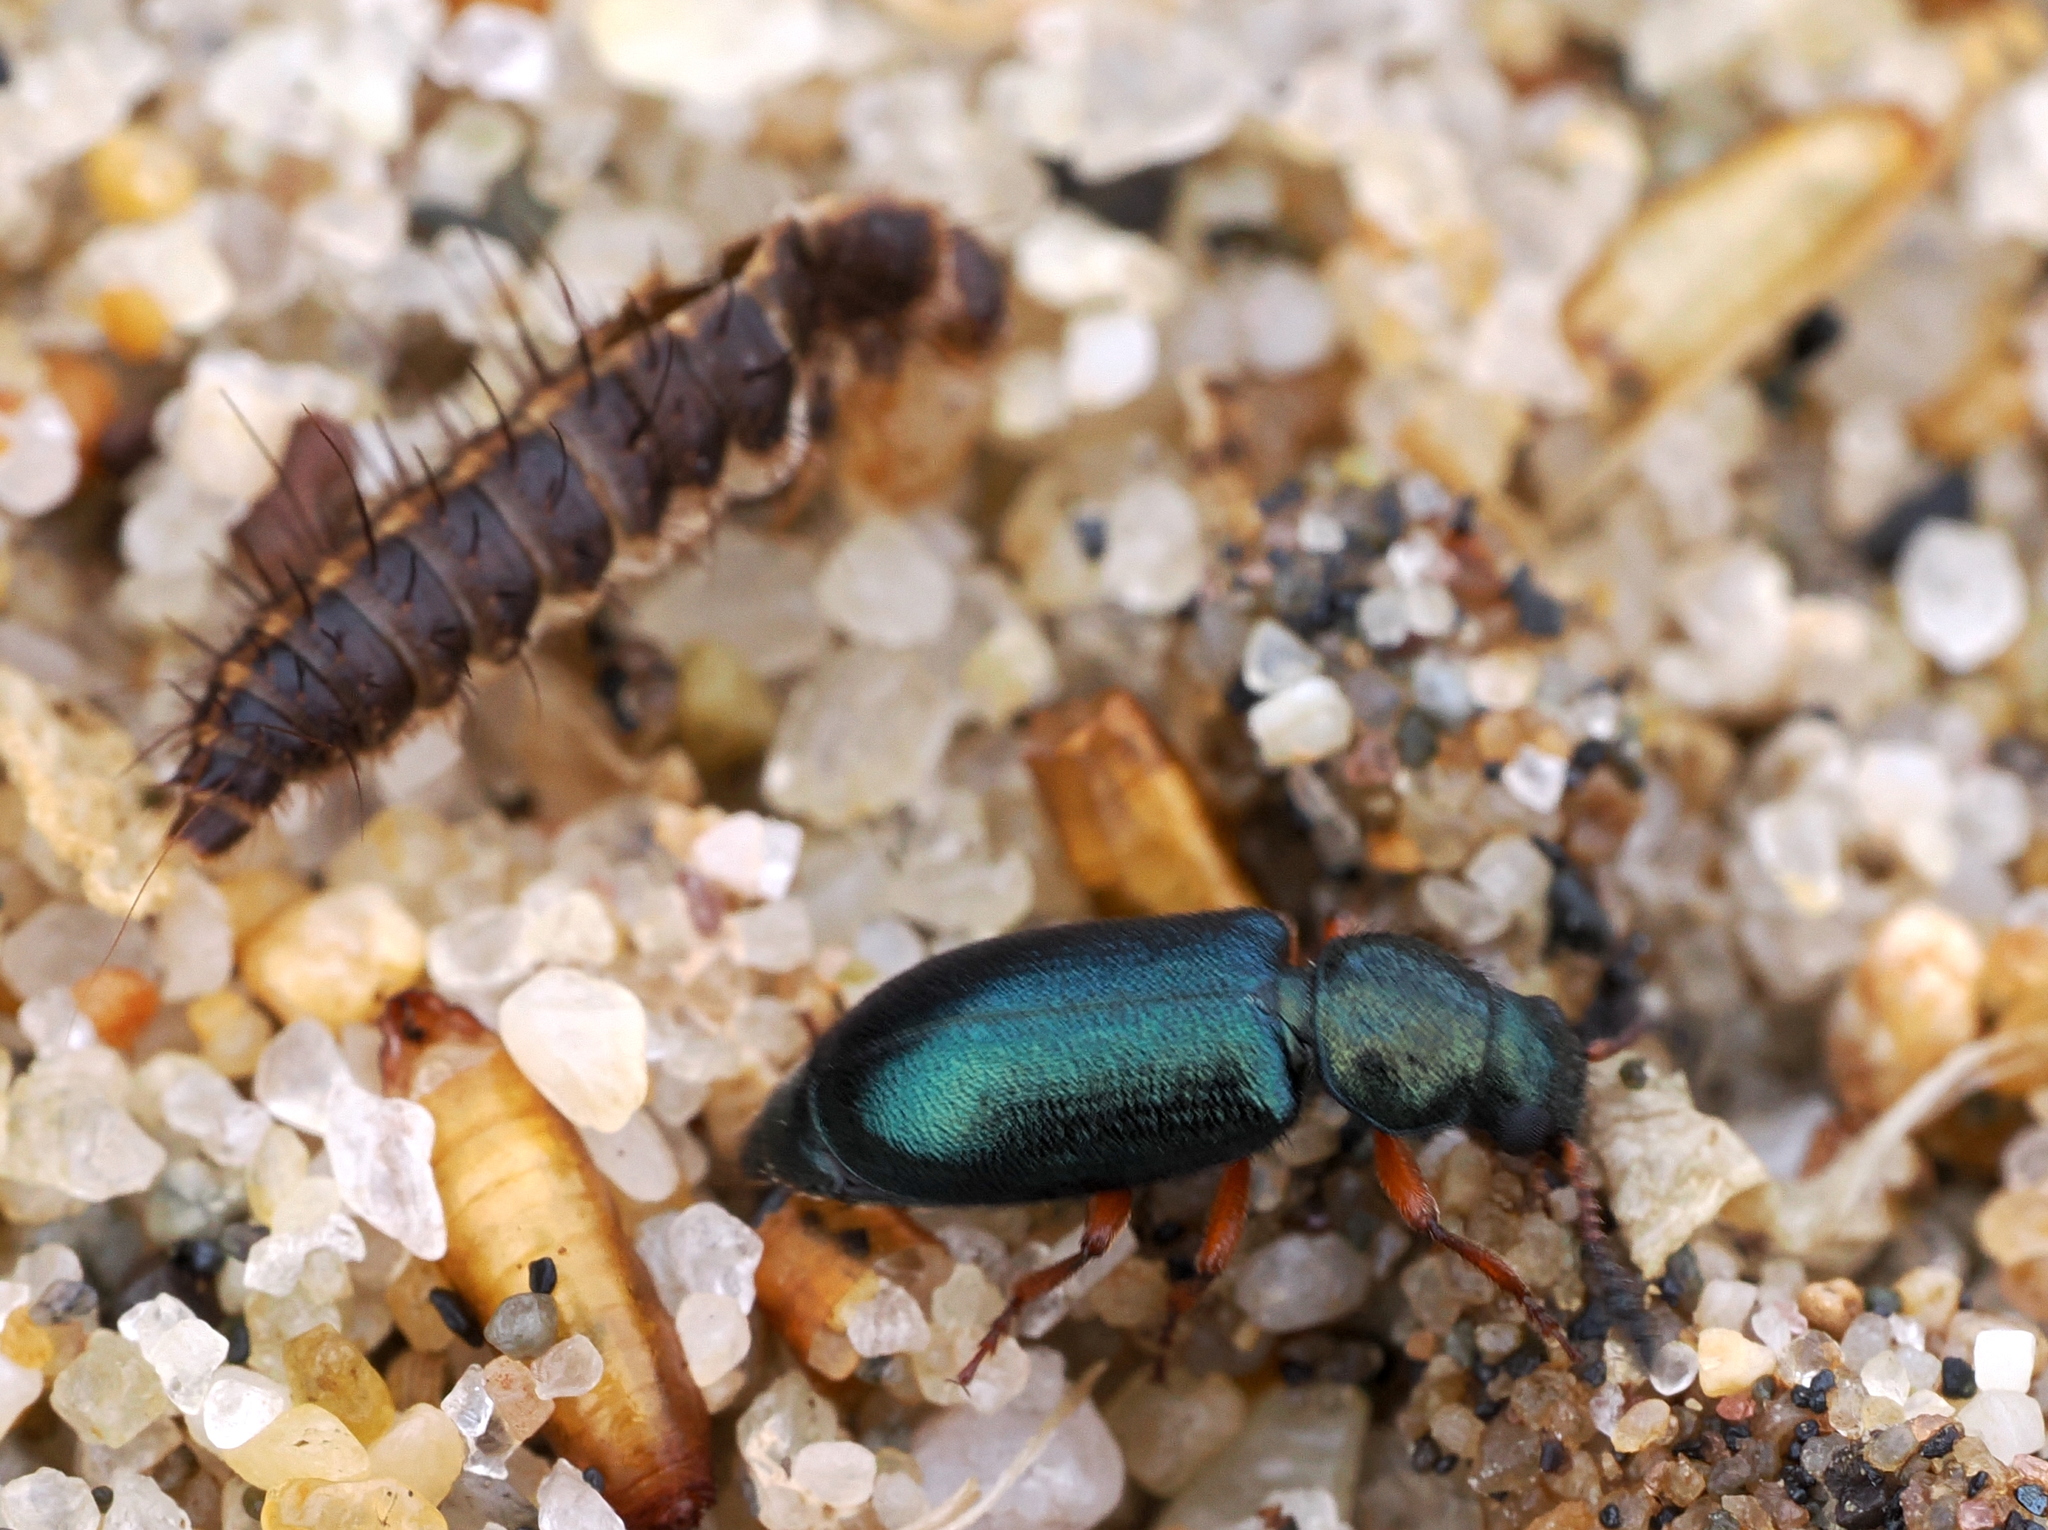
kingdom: Animalia
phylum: Arthropoda
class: Insecta
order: Coleoptera
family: Cleridae
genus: Necrobia
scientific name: Necrobia rufipes
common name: Red-legged ham beetle
